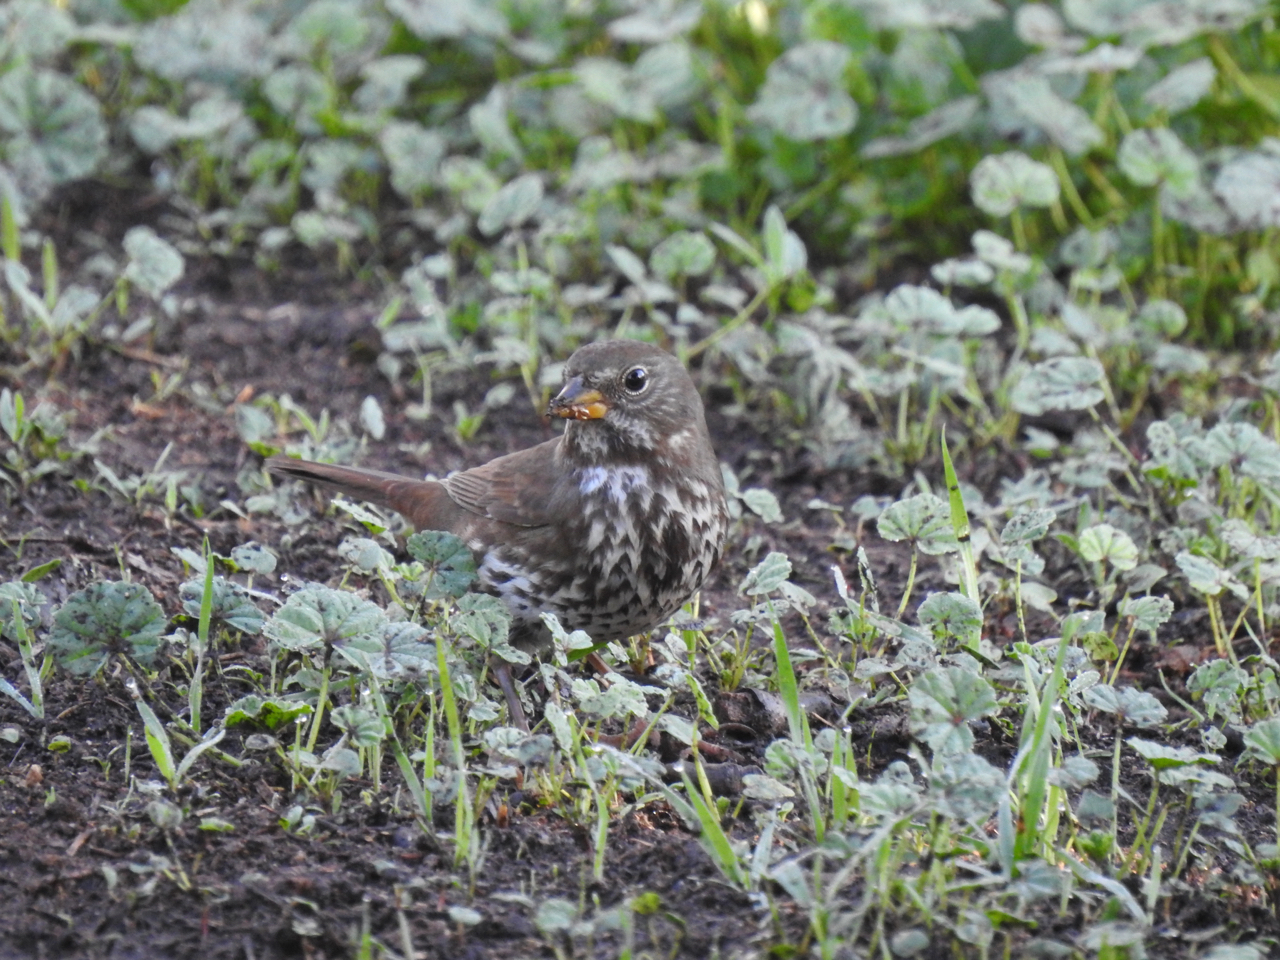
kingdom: Animalia
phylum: Chordata
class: Aves
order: Passeriformes
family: Passerellidae
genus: Passerella
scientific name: Passerella iliaca
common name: Fox sparrow
